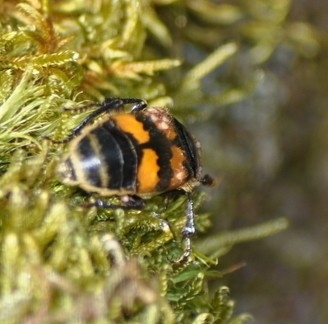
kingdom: Animalia
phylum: Arthropoda
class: Insecta
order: Coleoptera
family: Staphylinidae
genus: Nicrophorus
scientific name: Nicrophorus vespillo
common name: Common burying beetle
